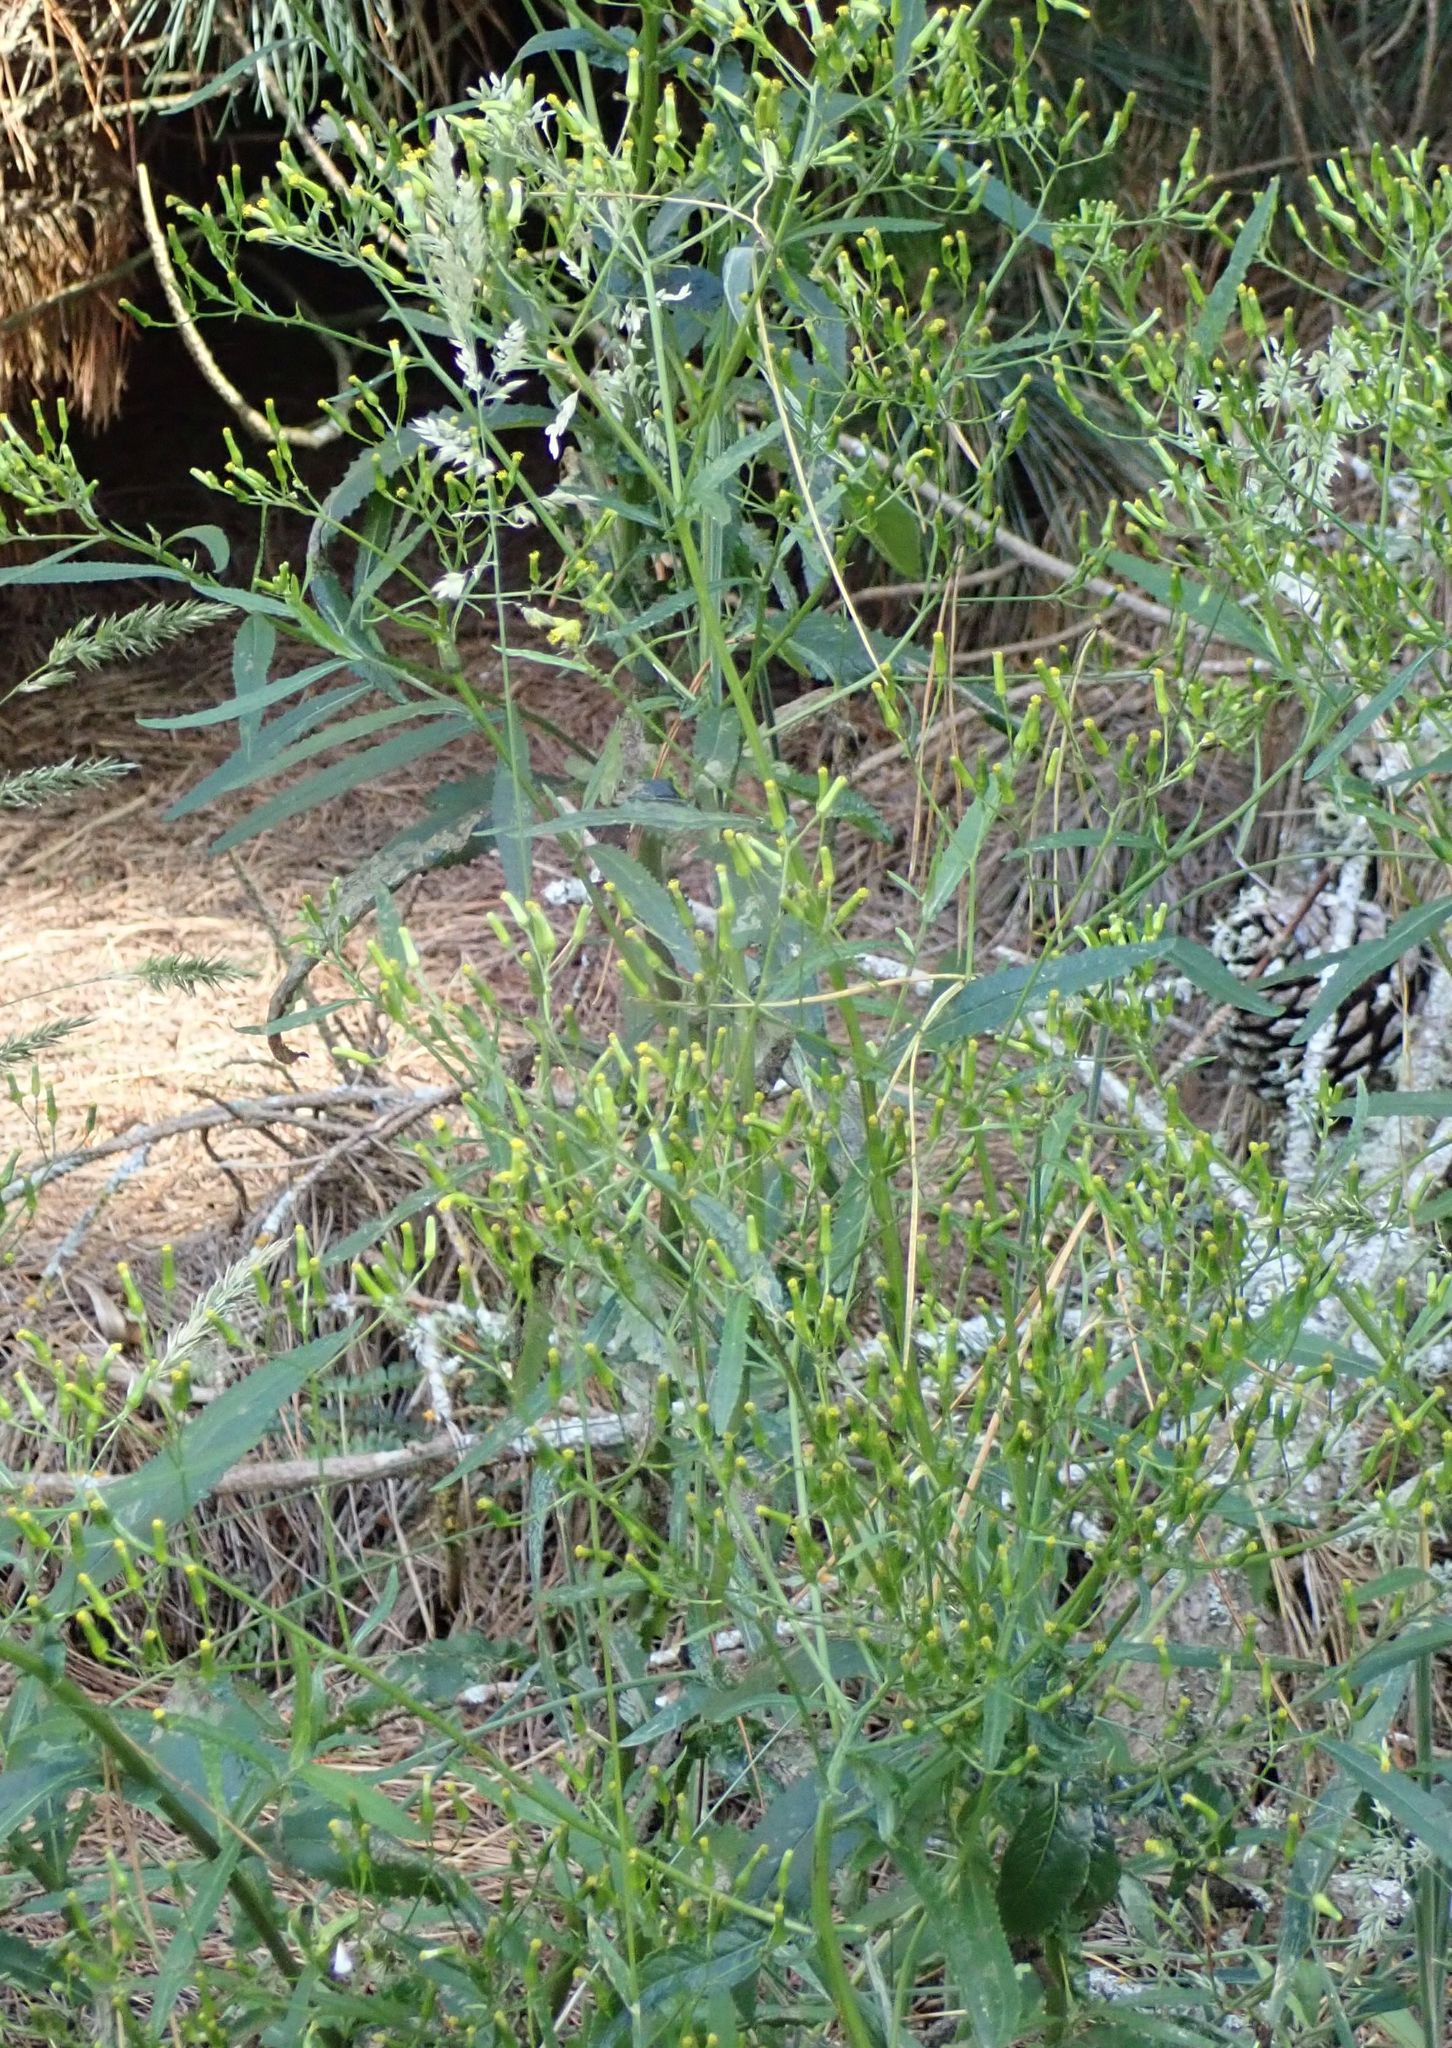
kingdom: Plantae
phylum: Tracheophyta
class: Magnoliopsida
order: Asterales
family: Asteraceae
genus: Senecio
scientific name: Senecio minimus
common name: Toothed fireweed
